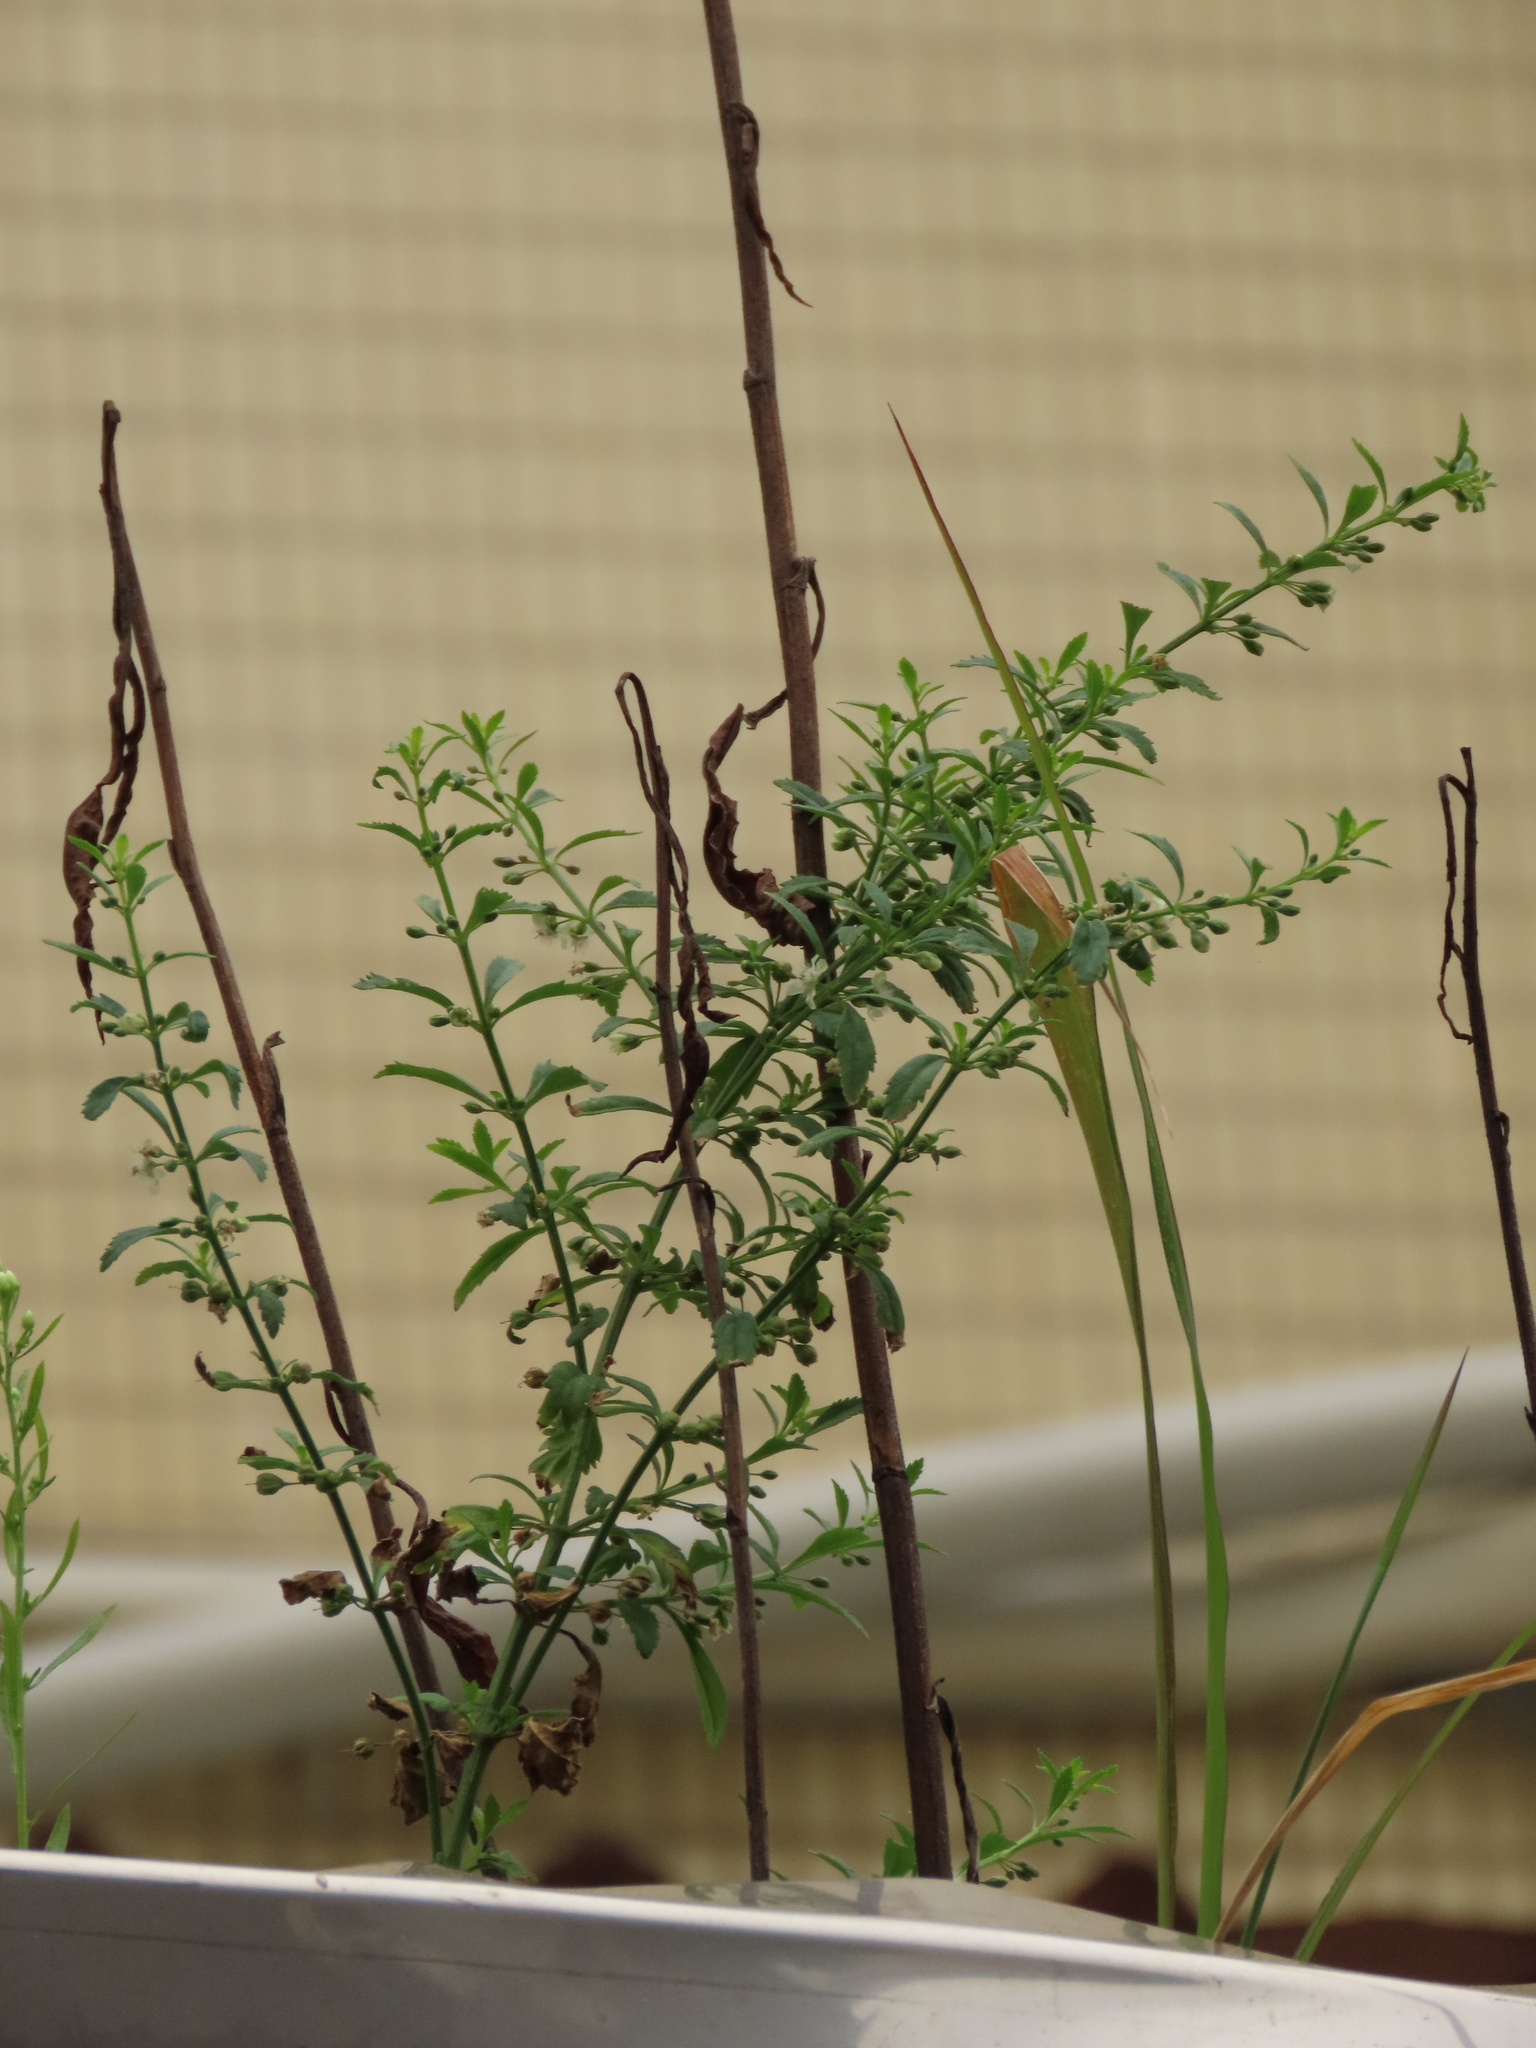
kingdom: Plantae
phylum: Tracheophyta
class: Magnoliopsida
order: Lamiales
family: Plantaginaceae
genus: Scoparia
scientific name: Scoparia dulcis
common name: Scoparia-weed
